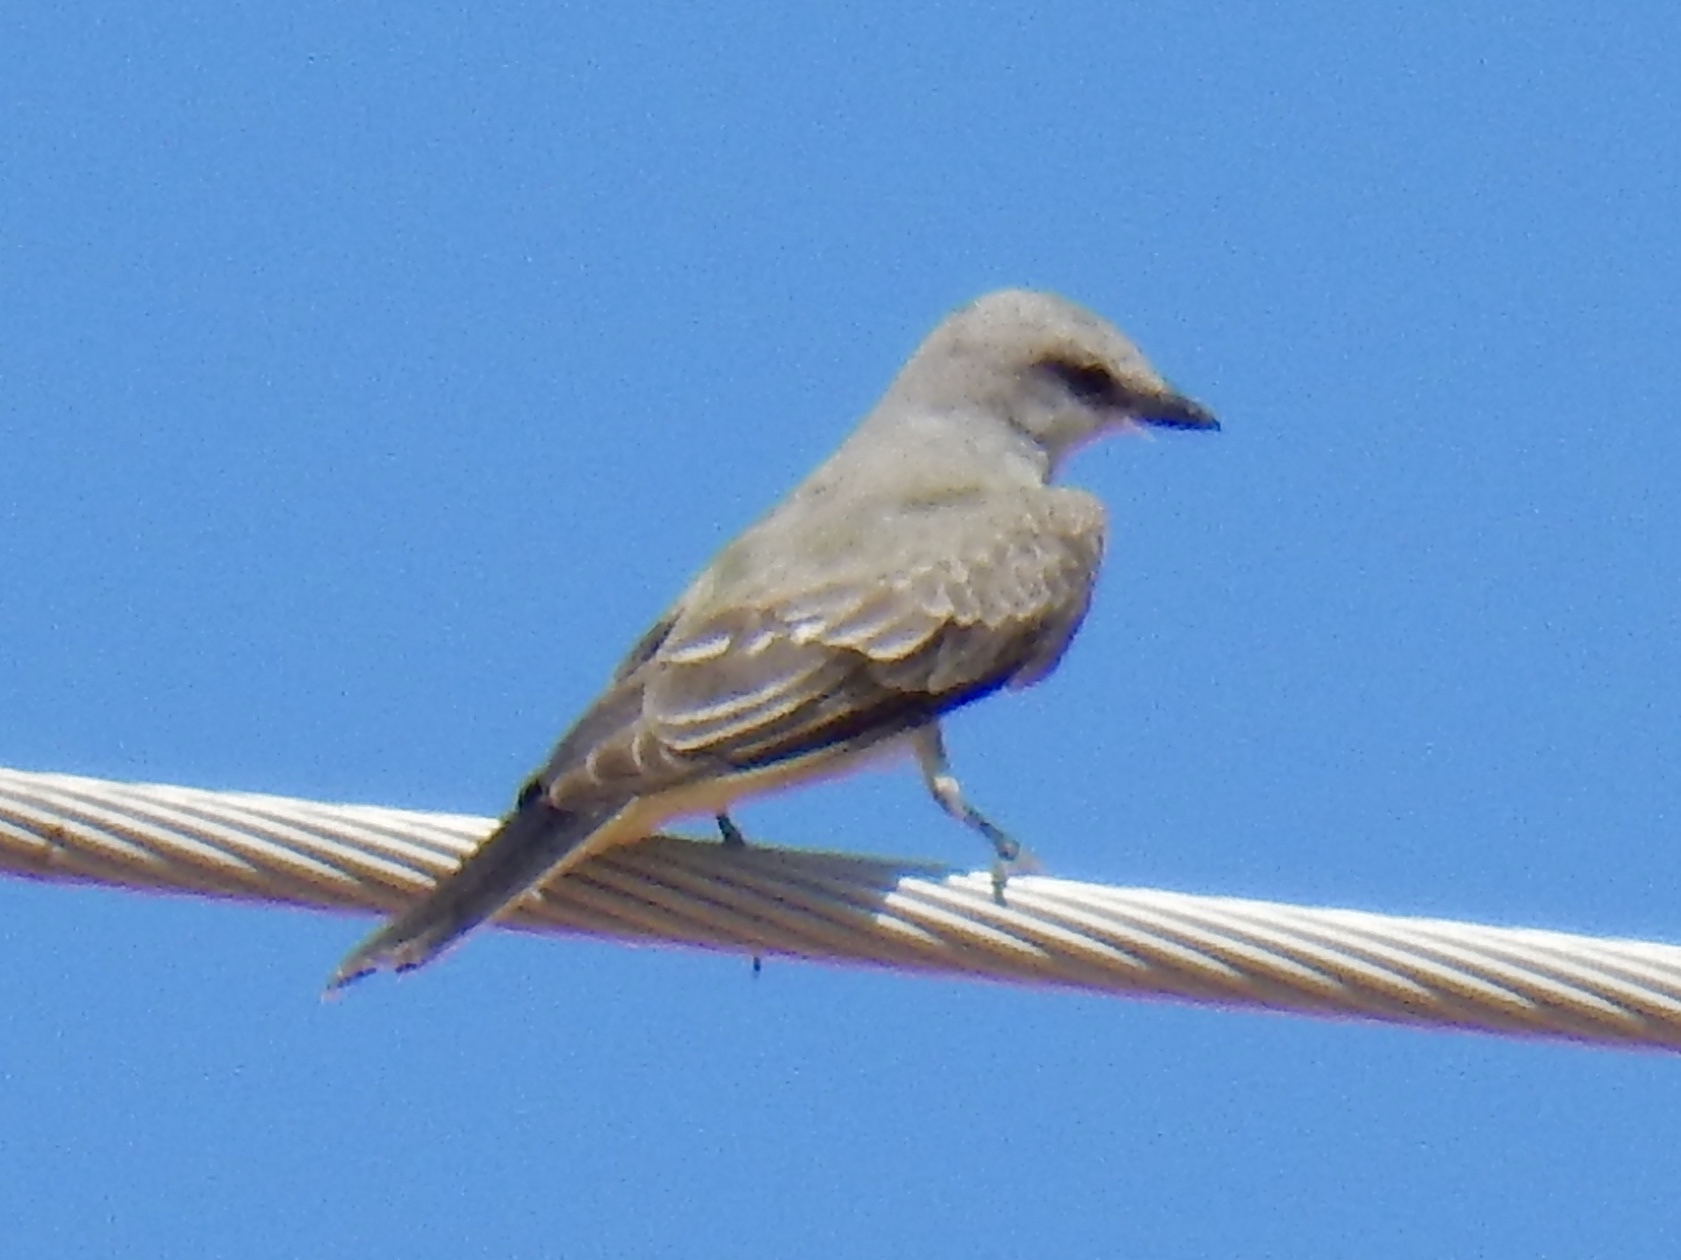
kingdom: Animalia
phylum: Chordata
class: Aves
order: Passeriformes
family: Tyrannidae
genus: Tyrannus
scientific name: Tyrannus verticalis
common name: Western kingbird
